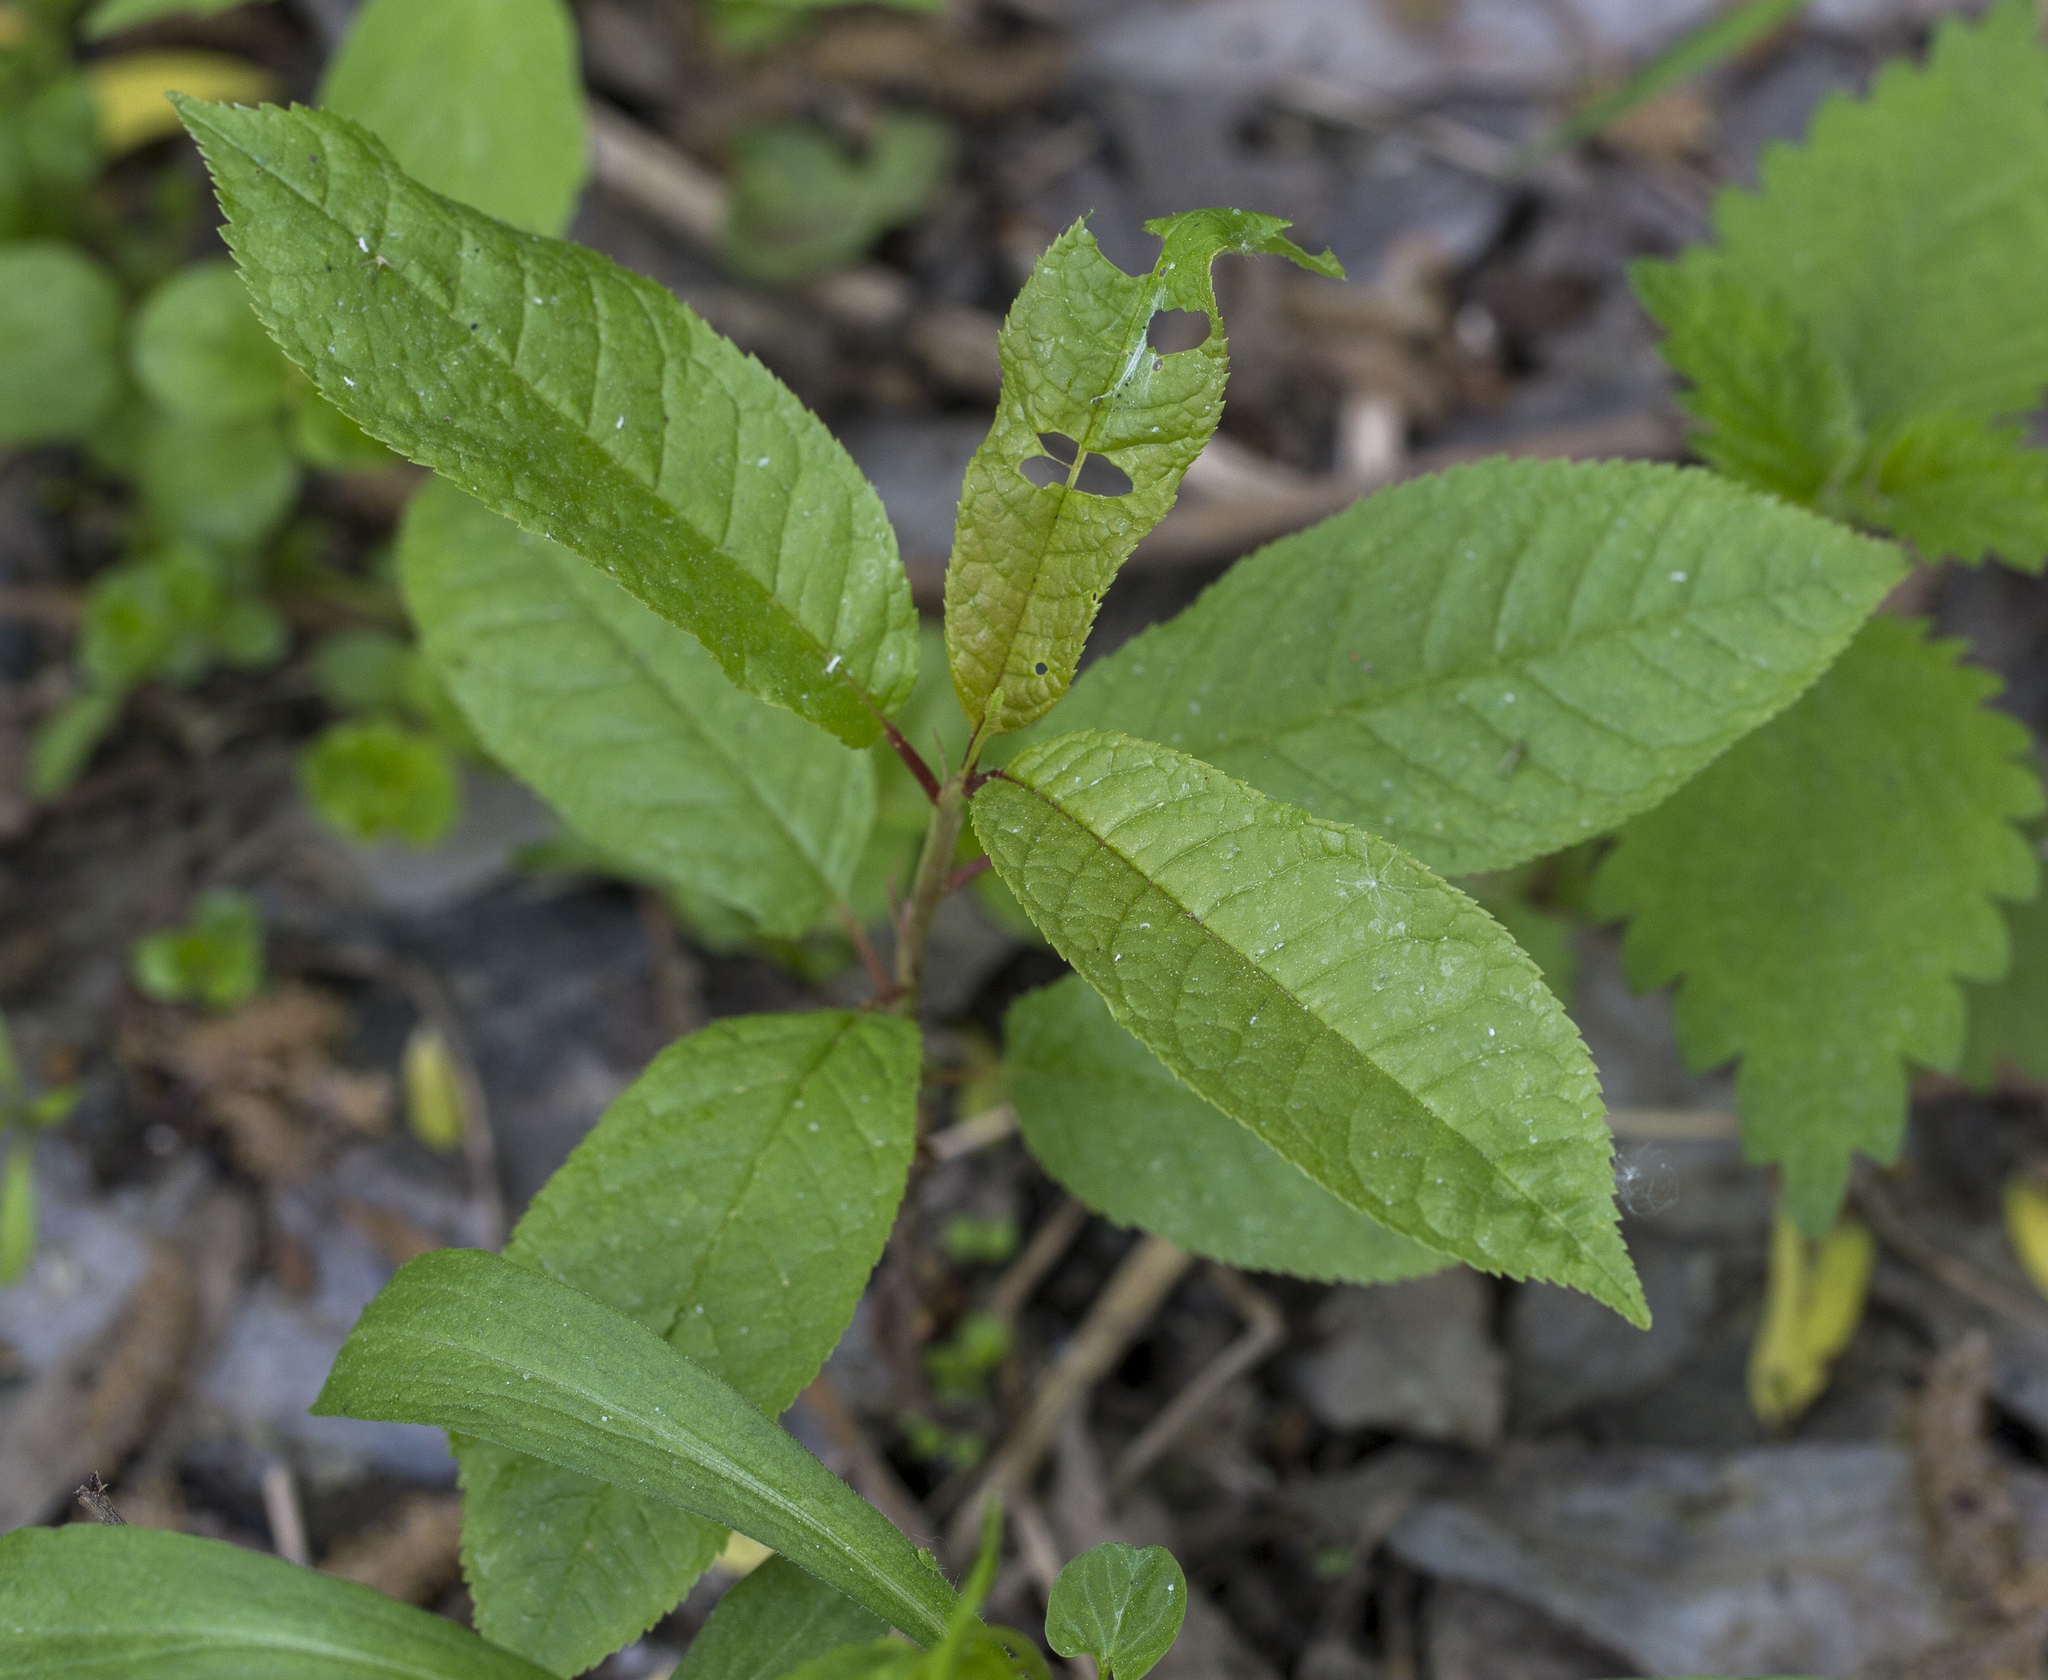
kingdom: Plantae
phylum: Tracheophyta
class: Magnoliopsida
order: Rosales
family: Rosaceae
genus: Prunus
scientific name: Prunus padus
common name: Bird cherry
